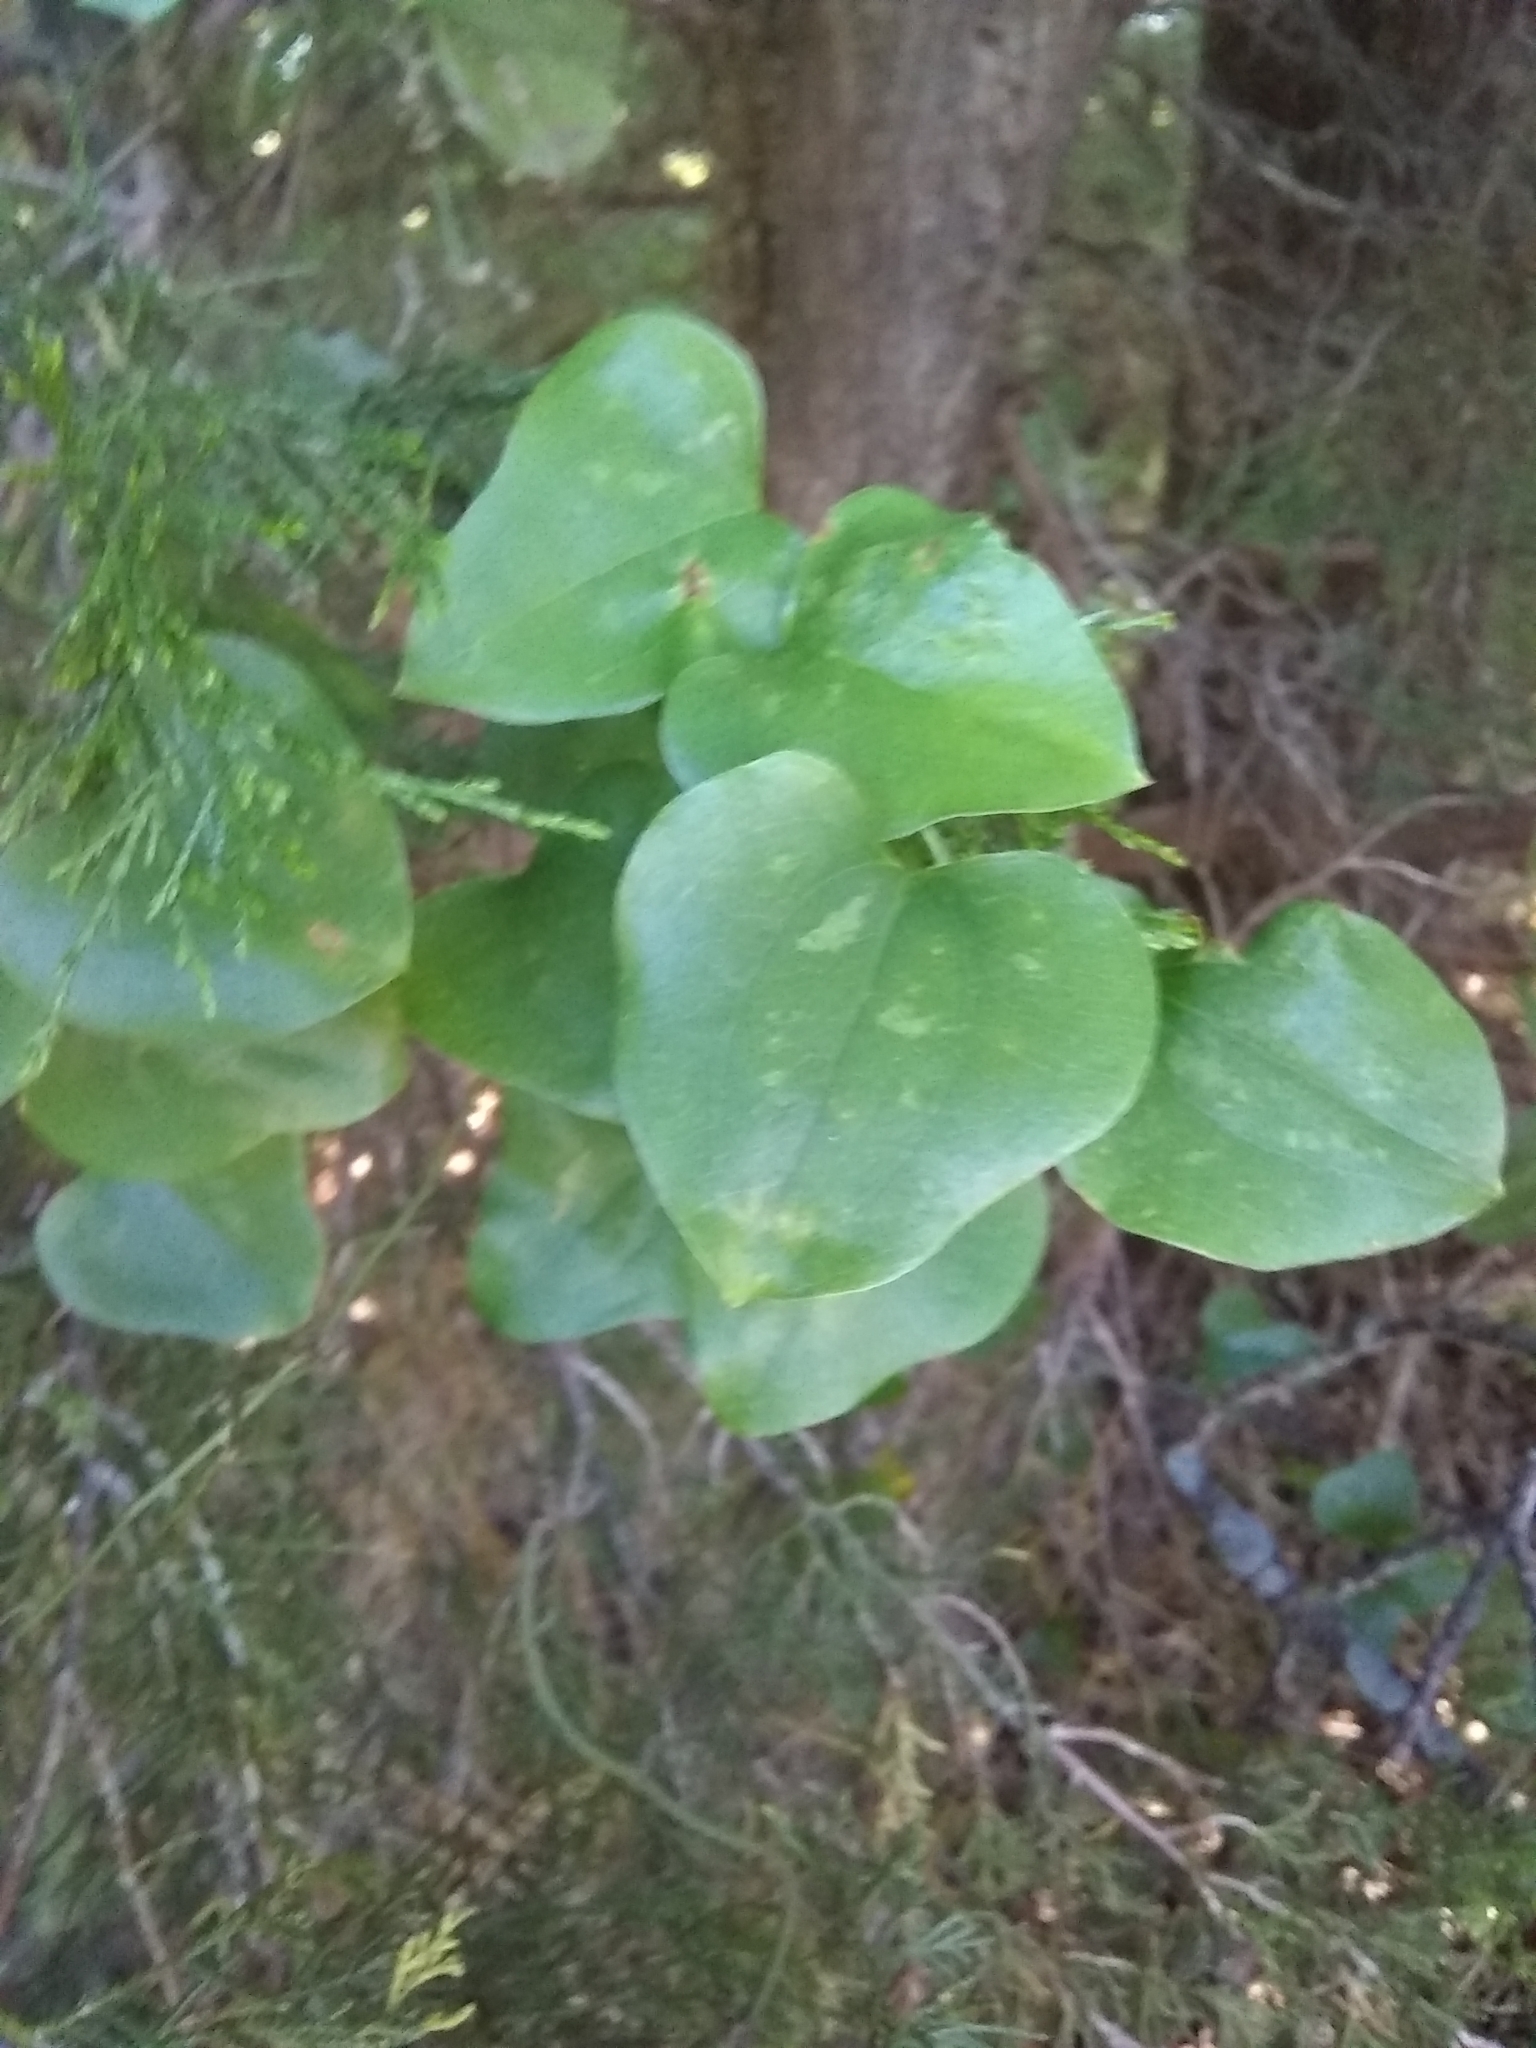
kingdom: Plantae
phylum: Tracheophyta
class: Liliopsida
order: Liliales
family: Smilacaceae
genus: Smilax
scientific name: Smilax bona-nox
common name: Catbrier
